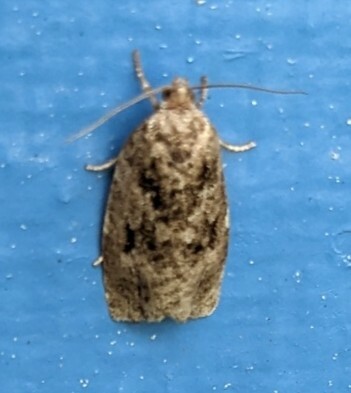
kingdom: Animalia
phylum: Arthropoda
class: Insecta
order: Lepidoptera
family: Tortricidae
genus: Choristoneura
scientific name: Choristoneura fumiferana
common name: Spruce budworm
